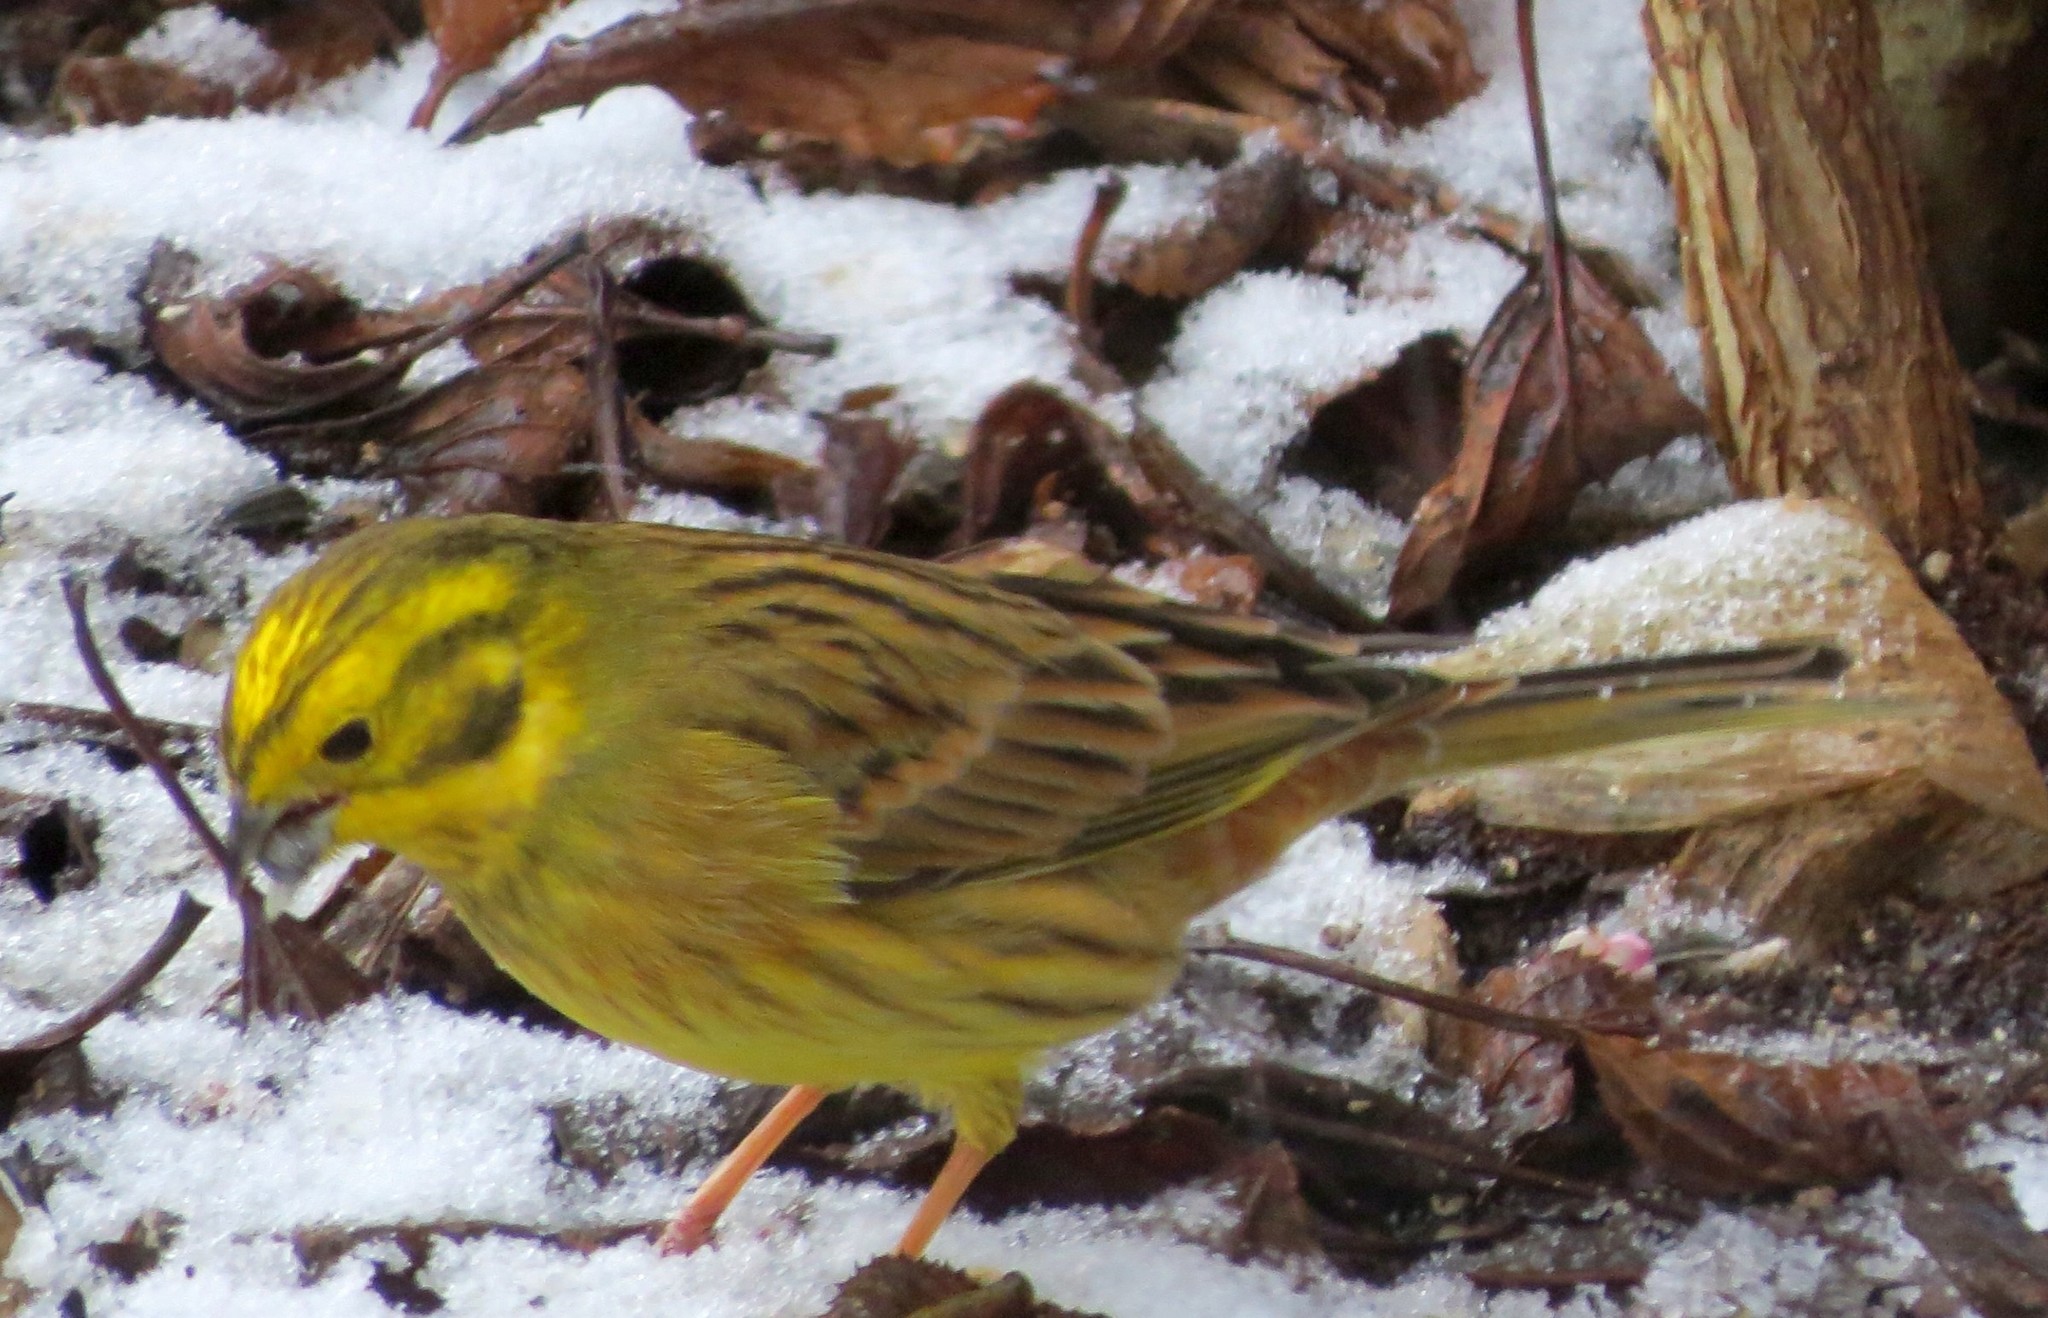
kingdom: Animalia
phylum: Chordata
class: Aves
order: Passeriformes
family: Emberizidae
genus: Emberiza
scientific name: Emberiza citrinella
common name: Yellowhammer
